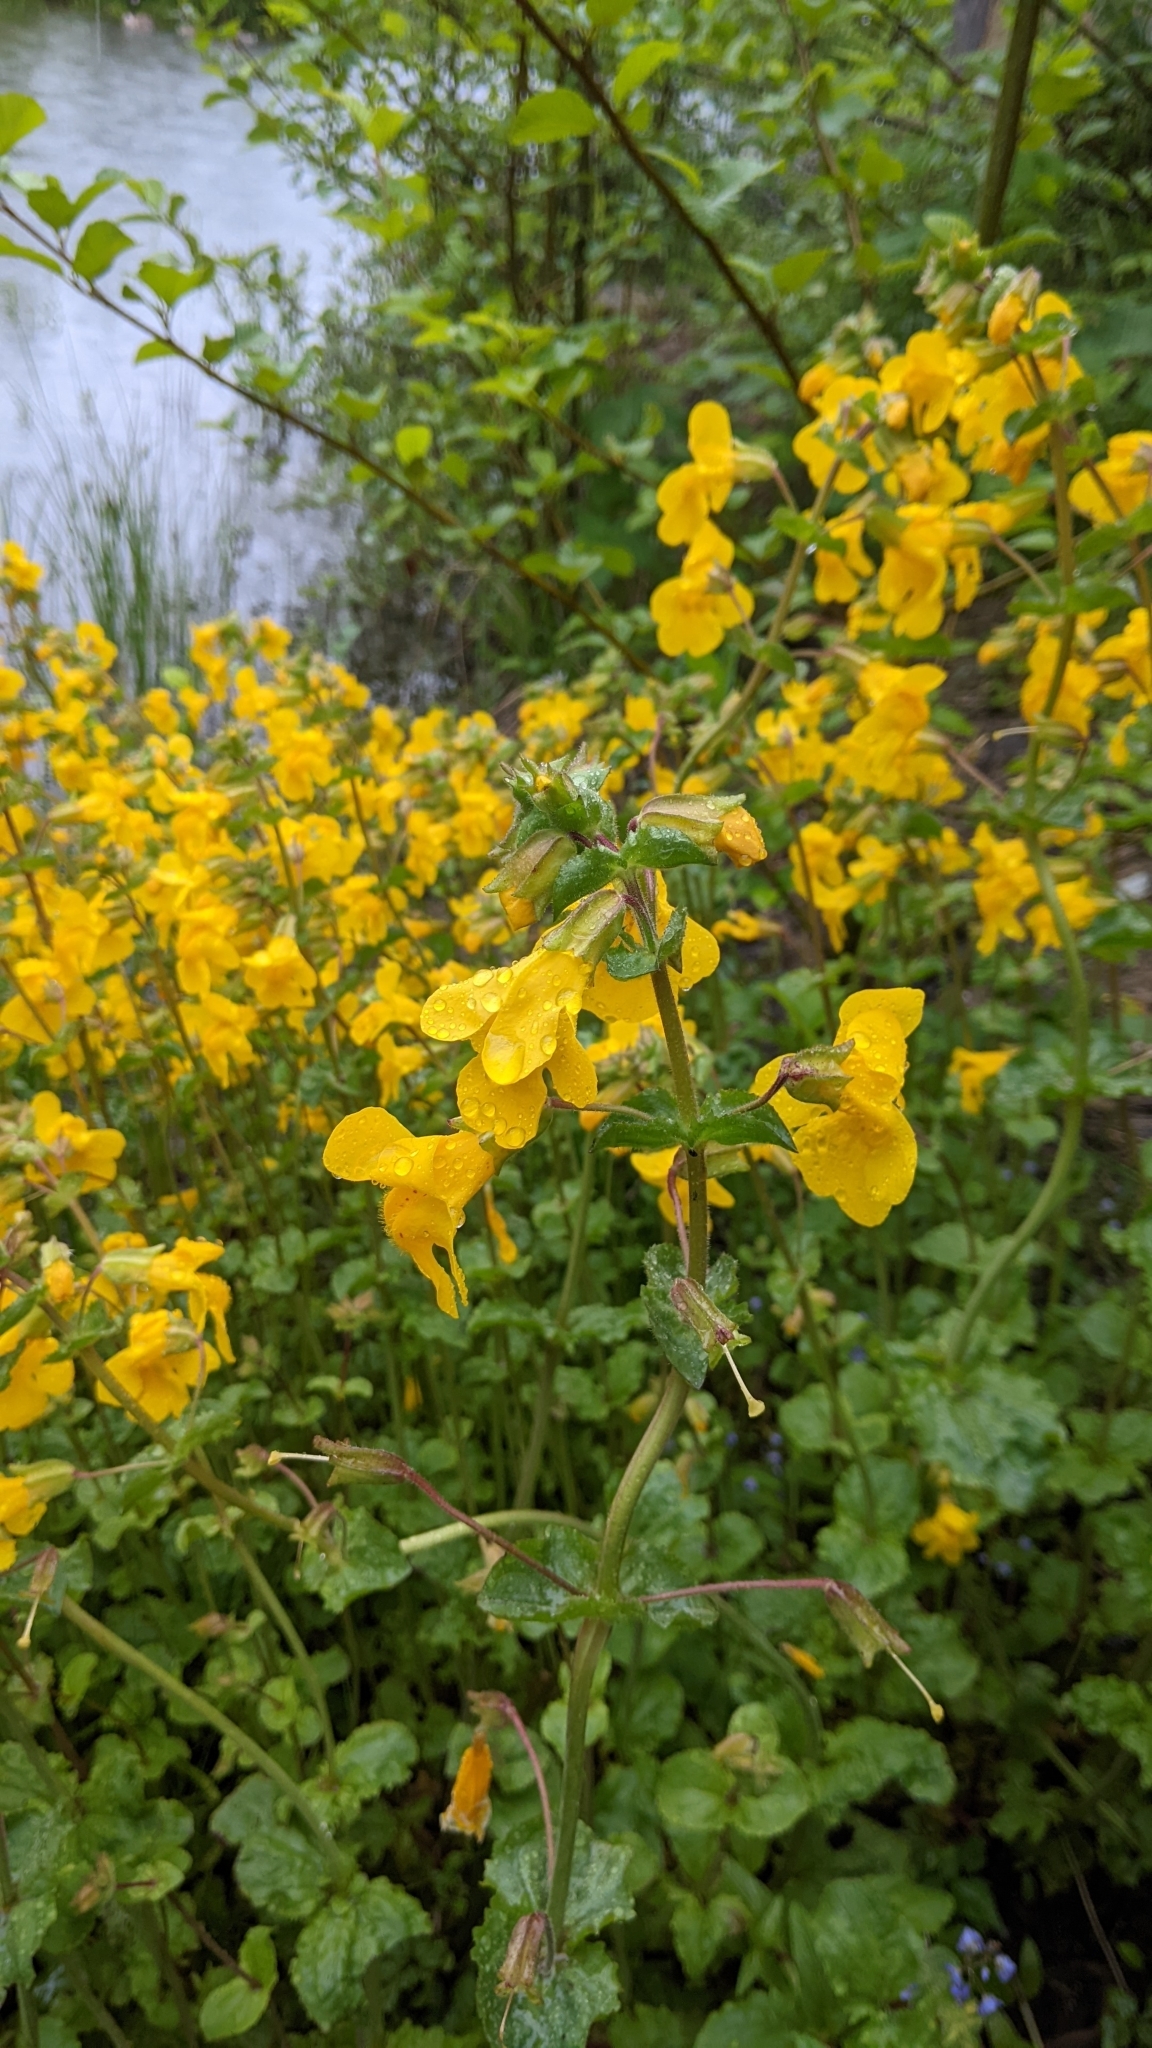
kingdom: Plantae
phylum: Tracheophyta
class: Magnoliopsida
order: Lamiales
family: Phrymaceae
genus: Erythranthe
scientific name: Erythranthe guttata
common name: Monkeyflower
